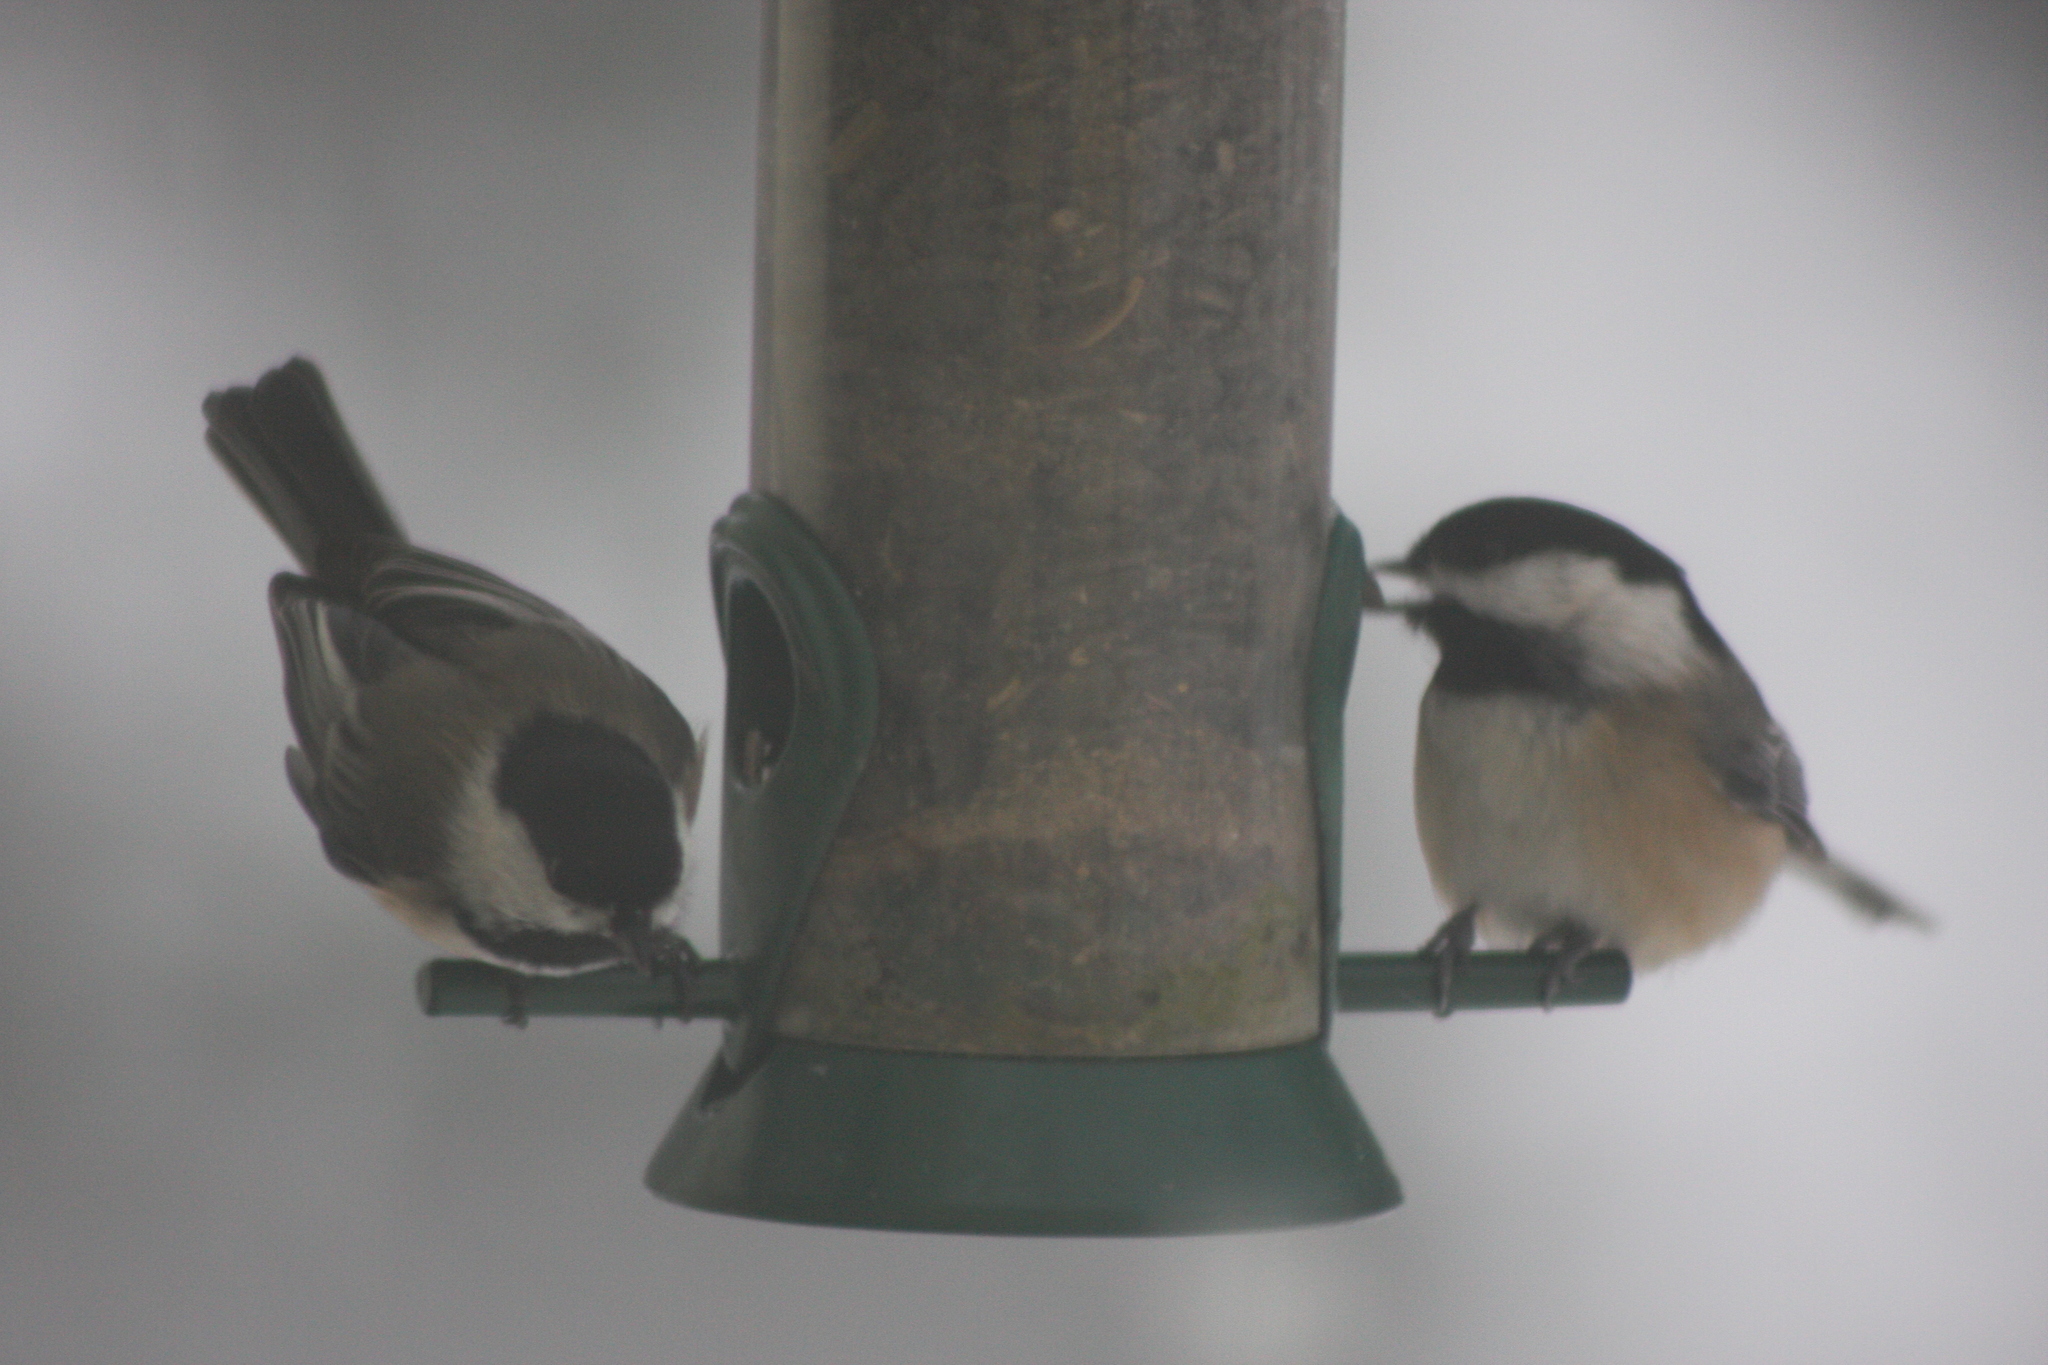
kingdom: Animalia
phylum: Chordata
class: Aves
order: Passeriformes
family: Paridae
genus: Poecile
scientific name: Poecile atricapillus
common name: Black-capped chickadee
